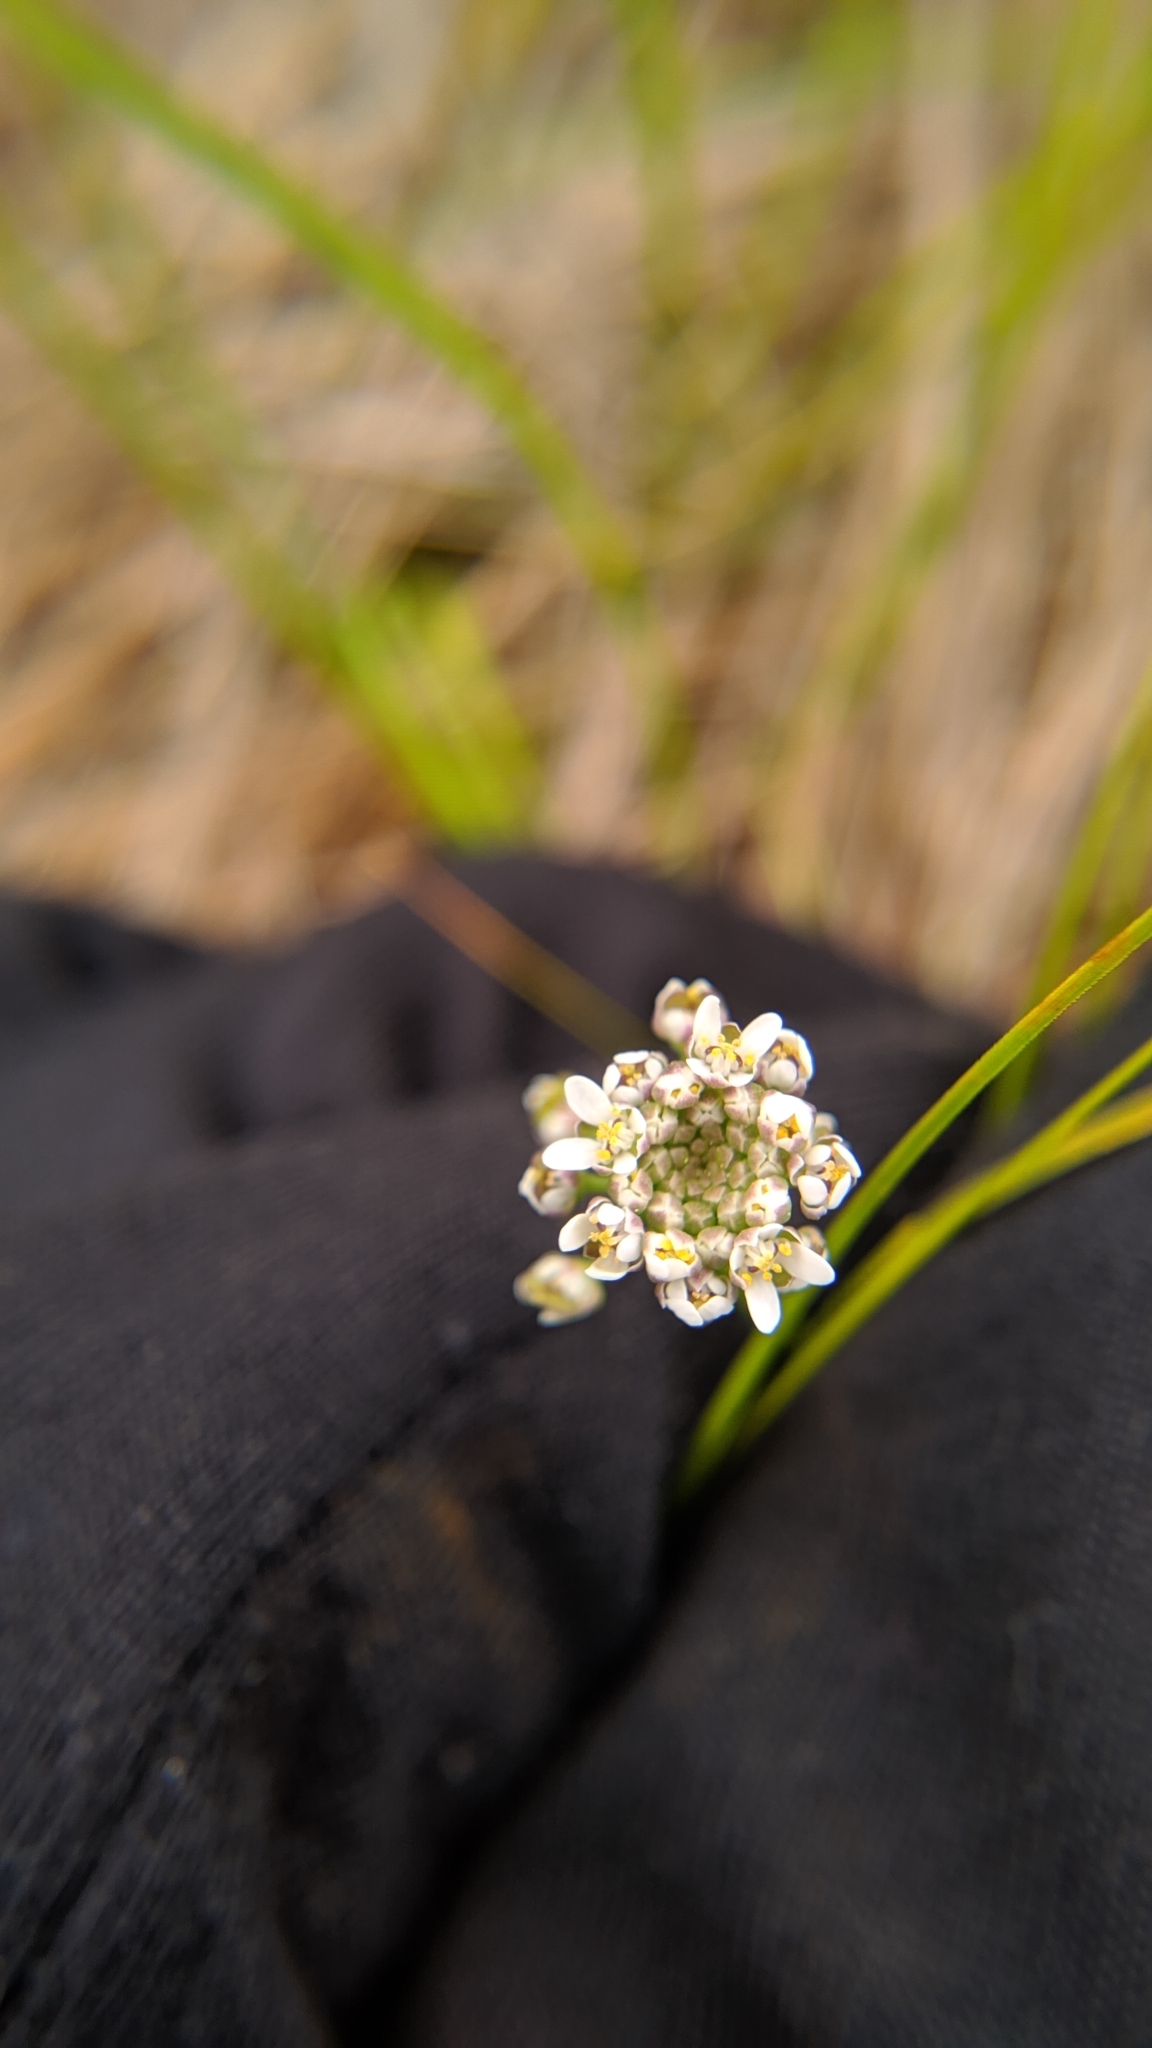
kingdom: Plantae
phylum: Tracheophyta
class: Magnoliopsida
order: Brassicales
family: Brassicaceae
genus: Teesdalia
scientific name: Teesdalia nudicaulis
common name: Shepherd's cress
